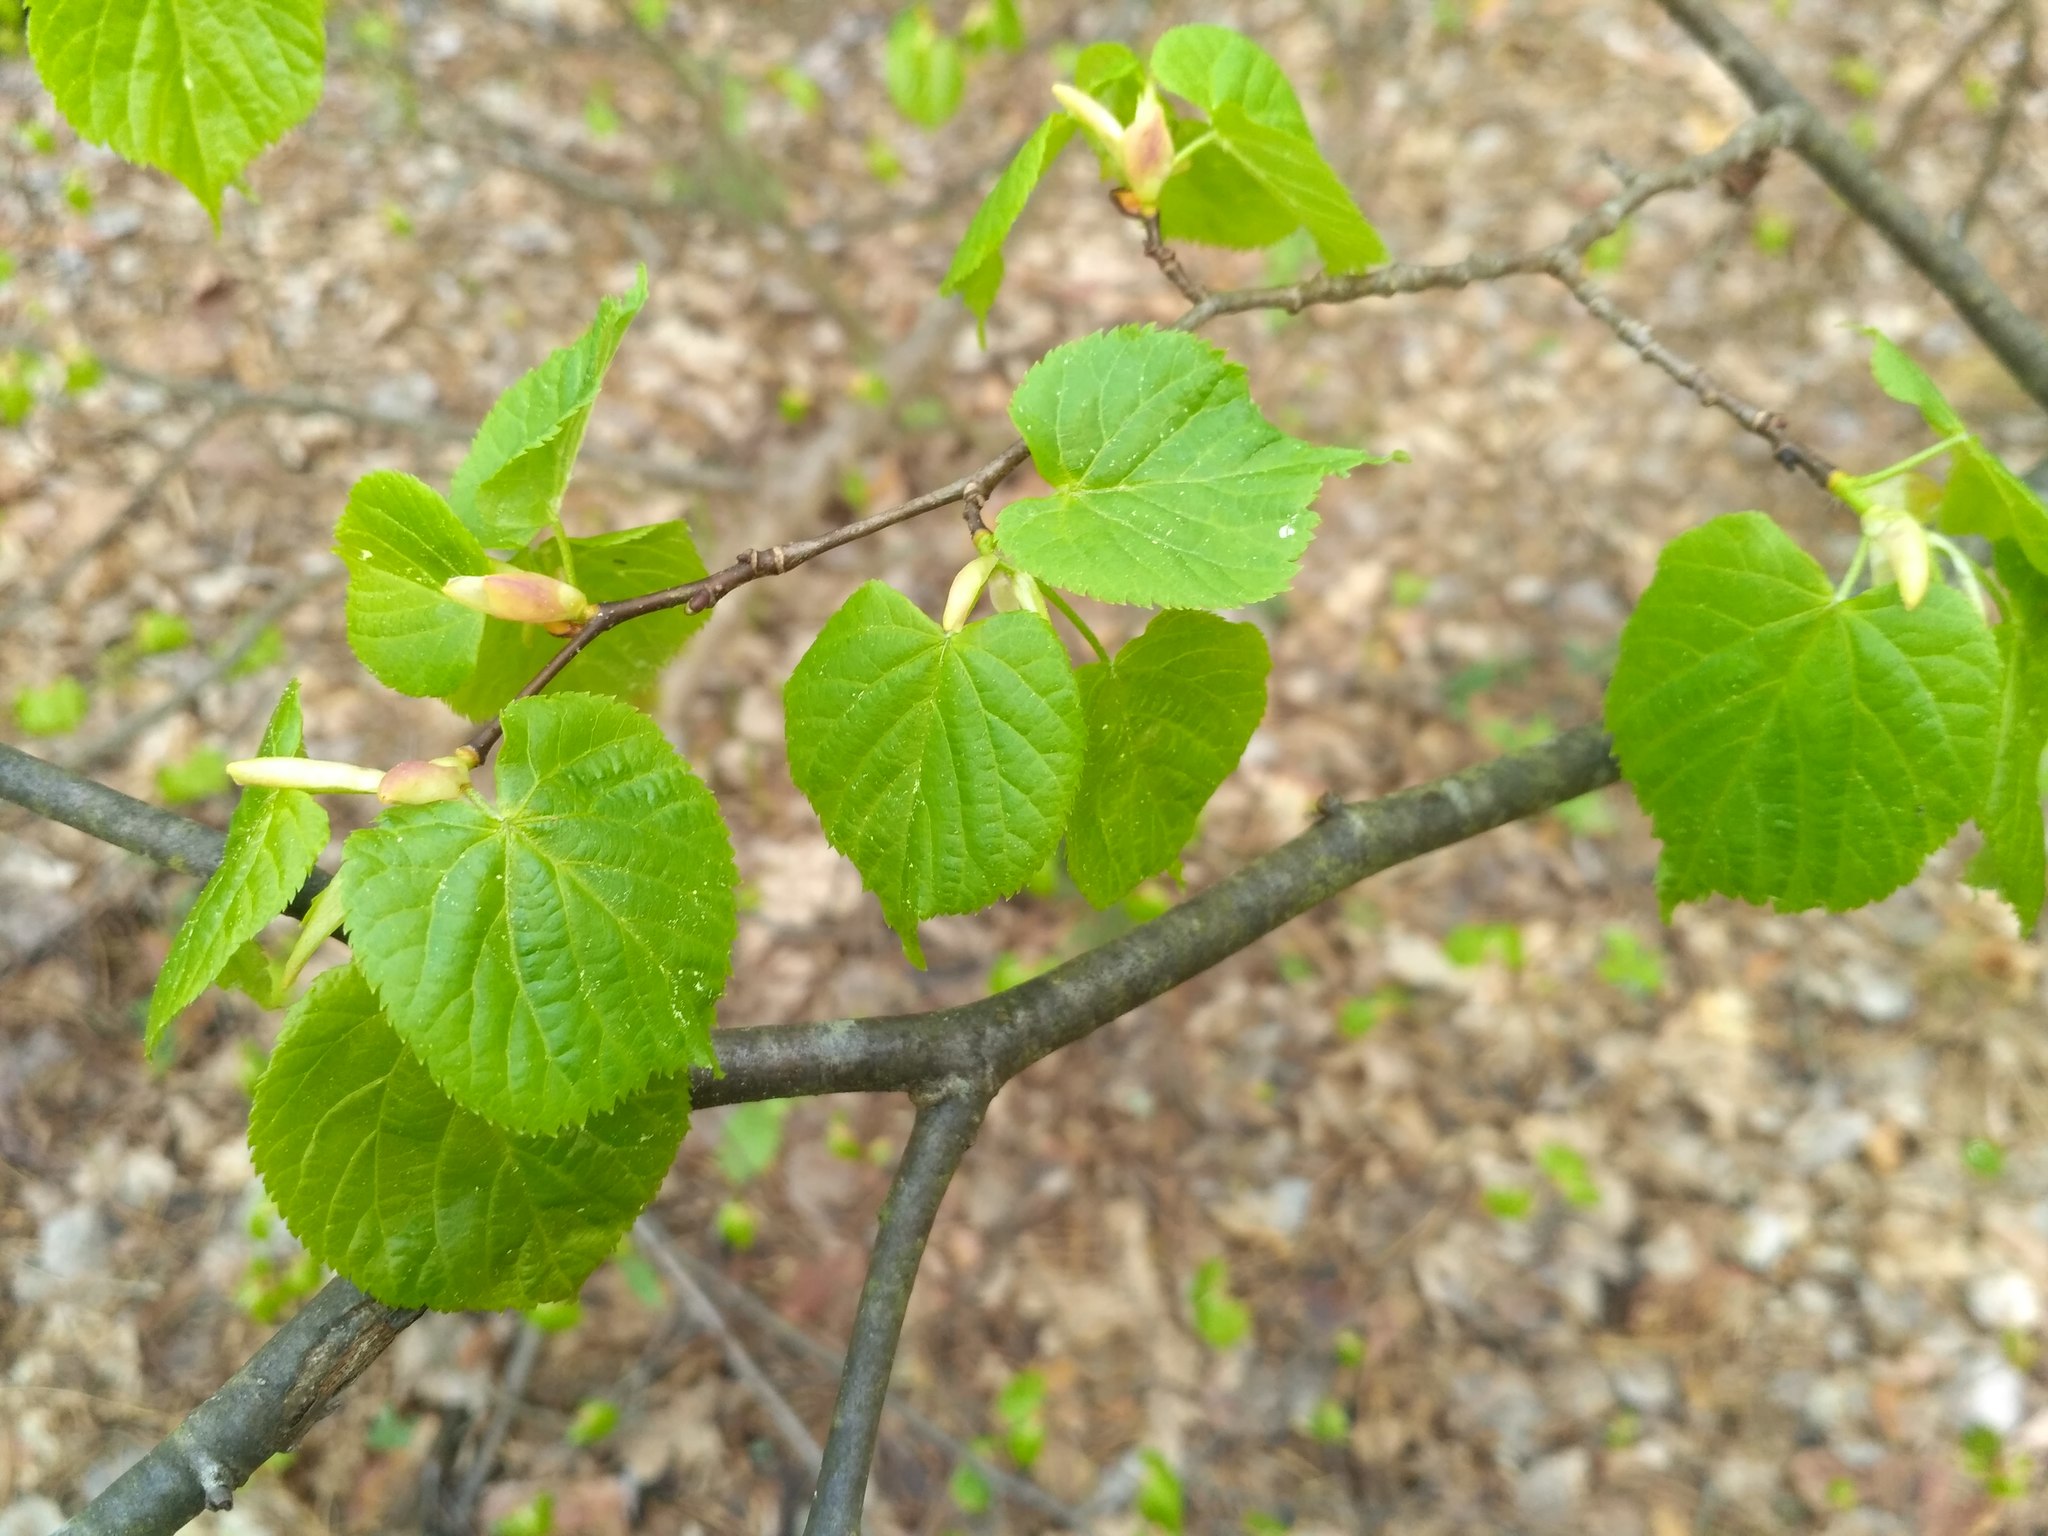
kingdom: Plantae
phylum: Tracheophyta
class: Magnoliopsida
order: Malvales
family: Malvaceae
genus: Tilia
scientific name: Tilia cordata
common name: Small-leaved lime
